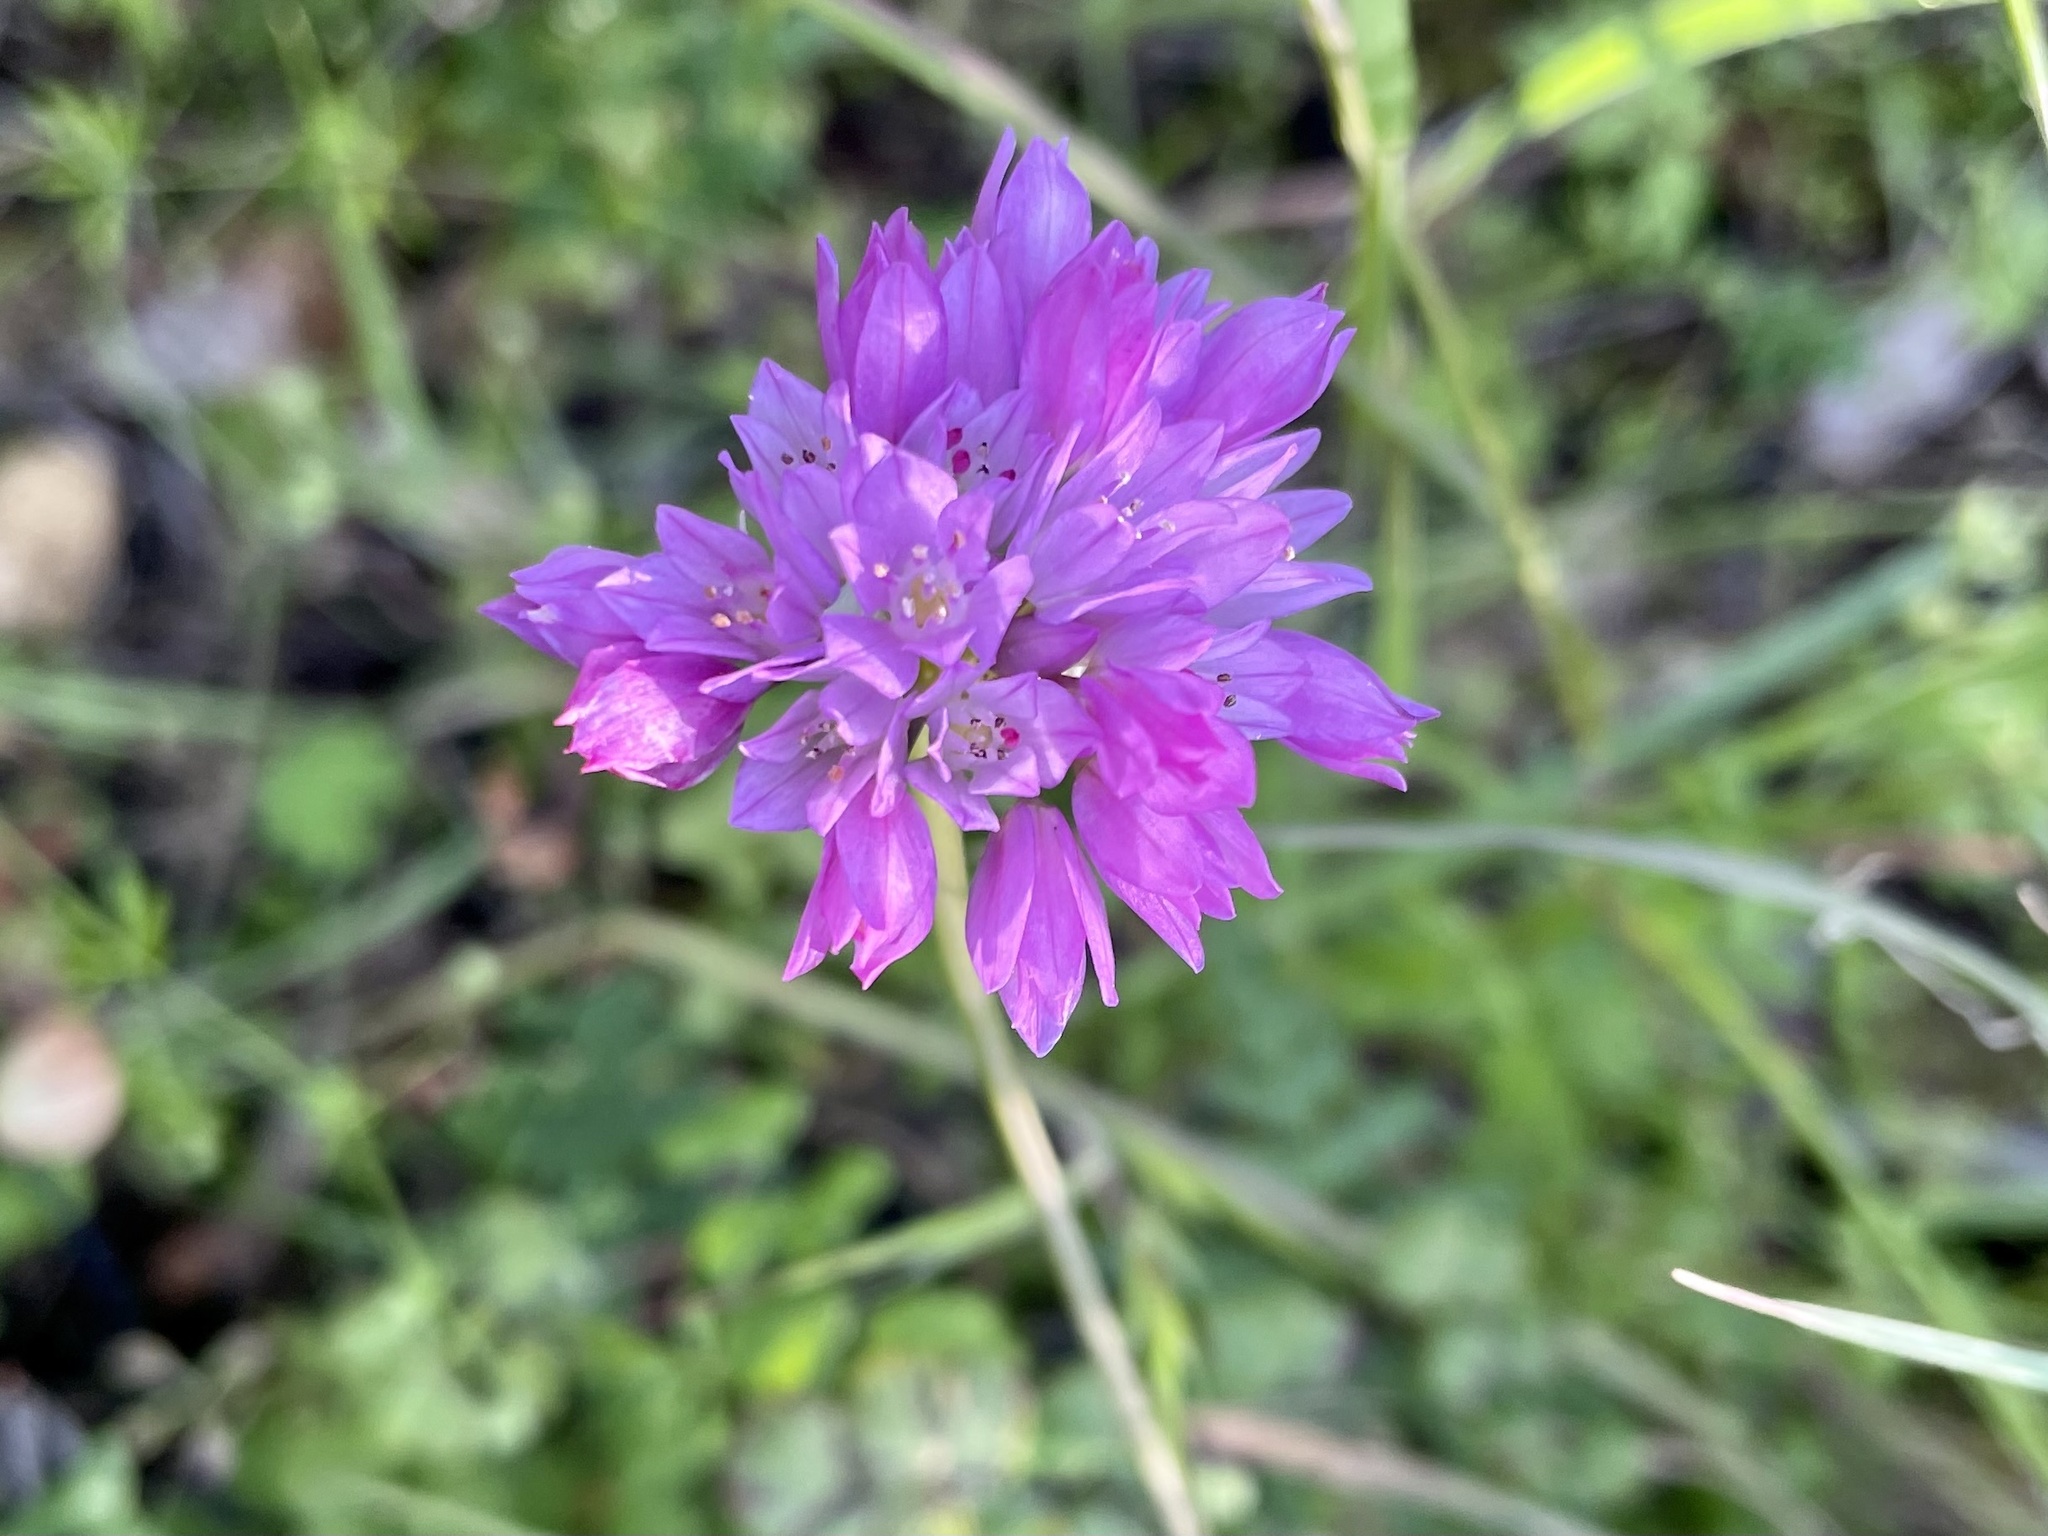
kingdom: Plantae
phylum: Tracheophyta
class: Liliopsida
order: Asparagales
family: Amaryllidaceae
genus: Allium
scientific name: Allium serra
